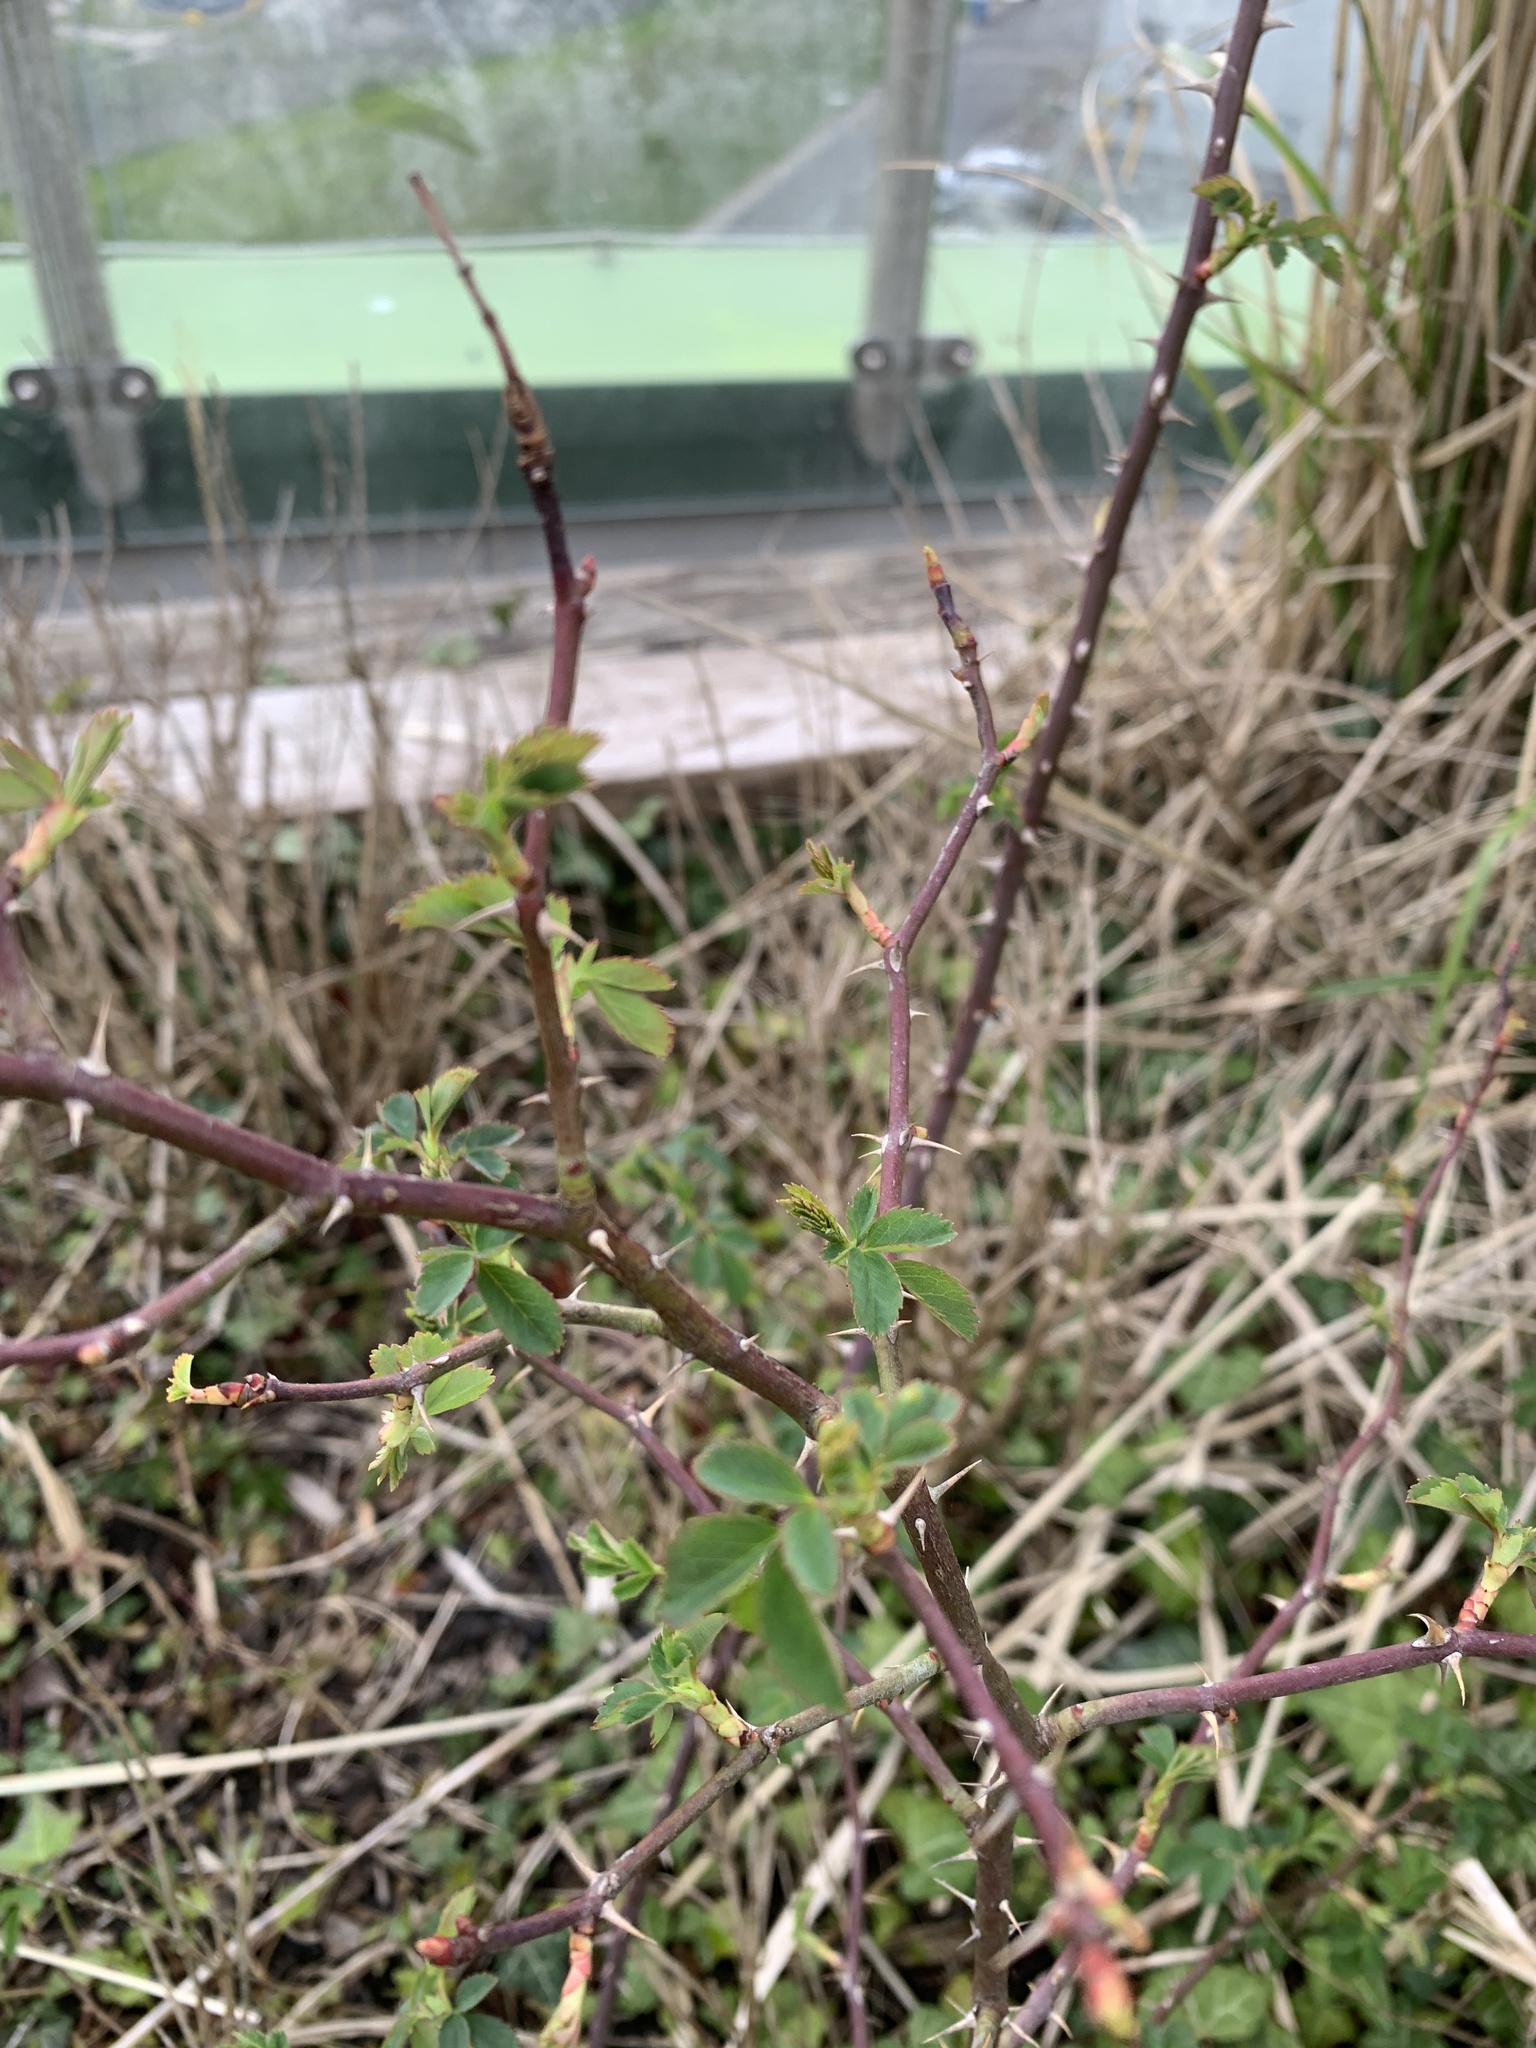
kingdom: Plantae
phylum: Tracheophyta
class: Magnoliopsida
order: Rosales
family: Rosaceae
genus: Rosa
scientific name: Rosa canina
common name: Dog rose
